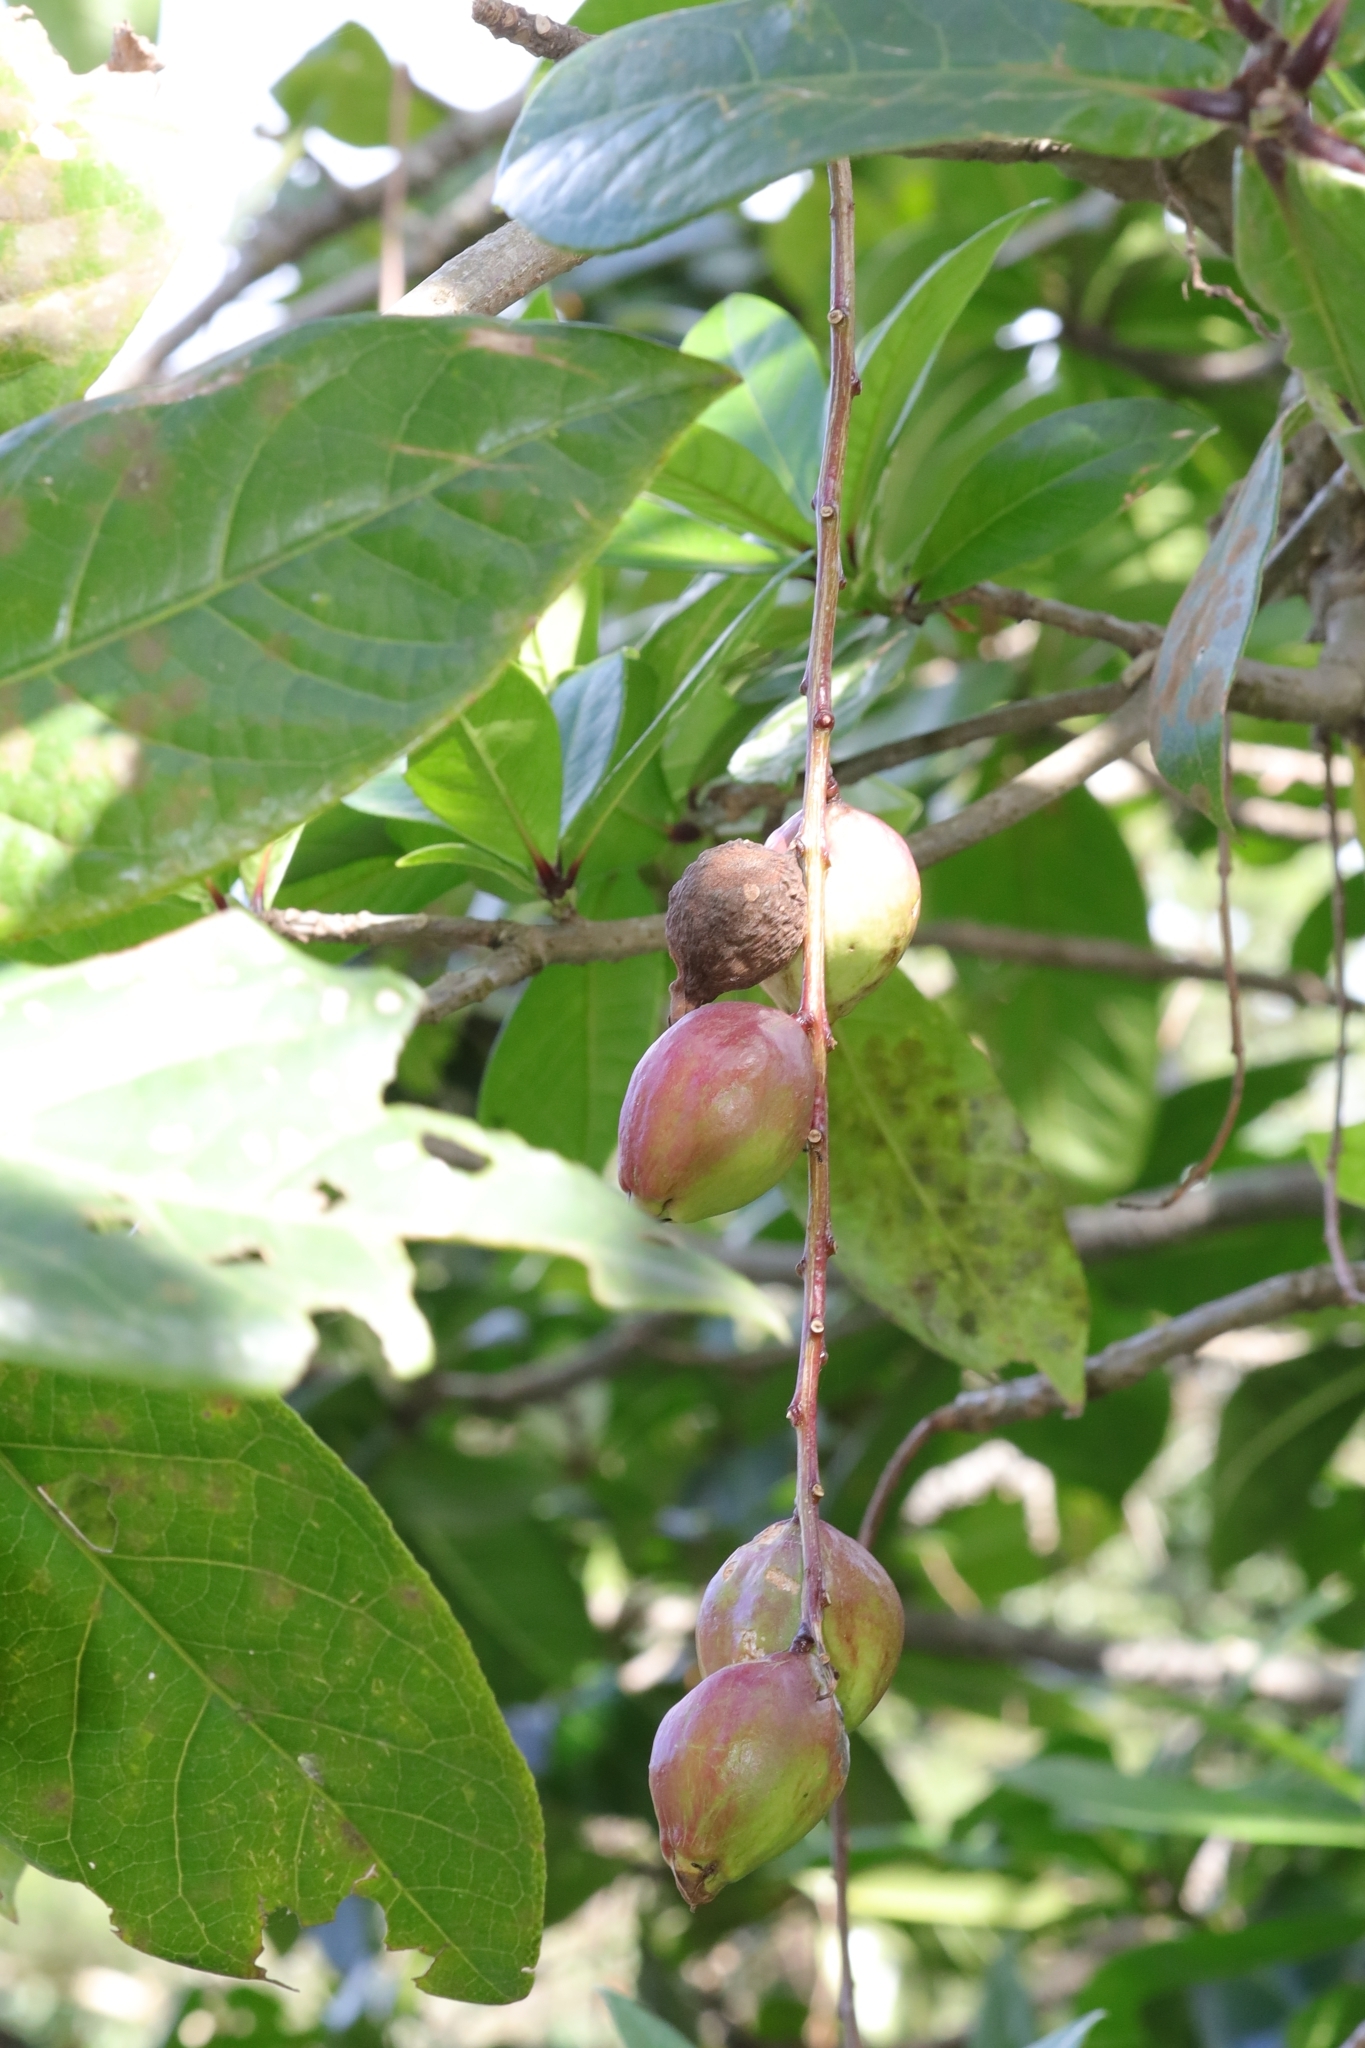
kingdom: Plantae
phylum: Tracheophyta
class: Magnoliopsida
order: Ericales
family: Lecythidaceae
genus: Barringtonia
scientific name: Barringtonia racemosa
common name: Brackwater mangrove
